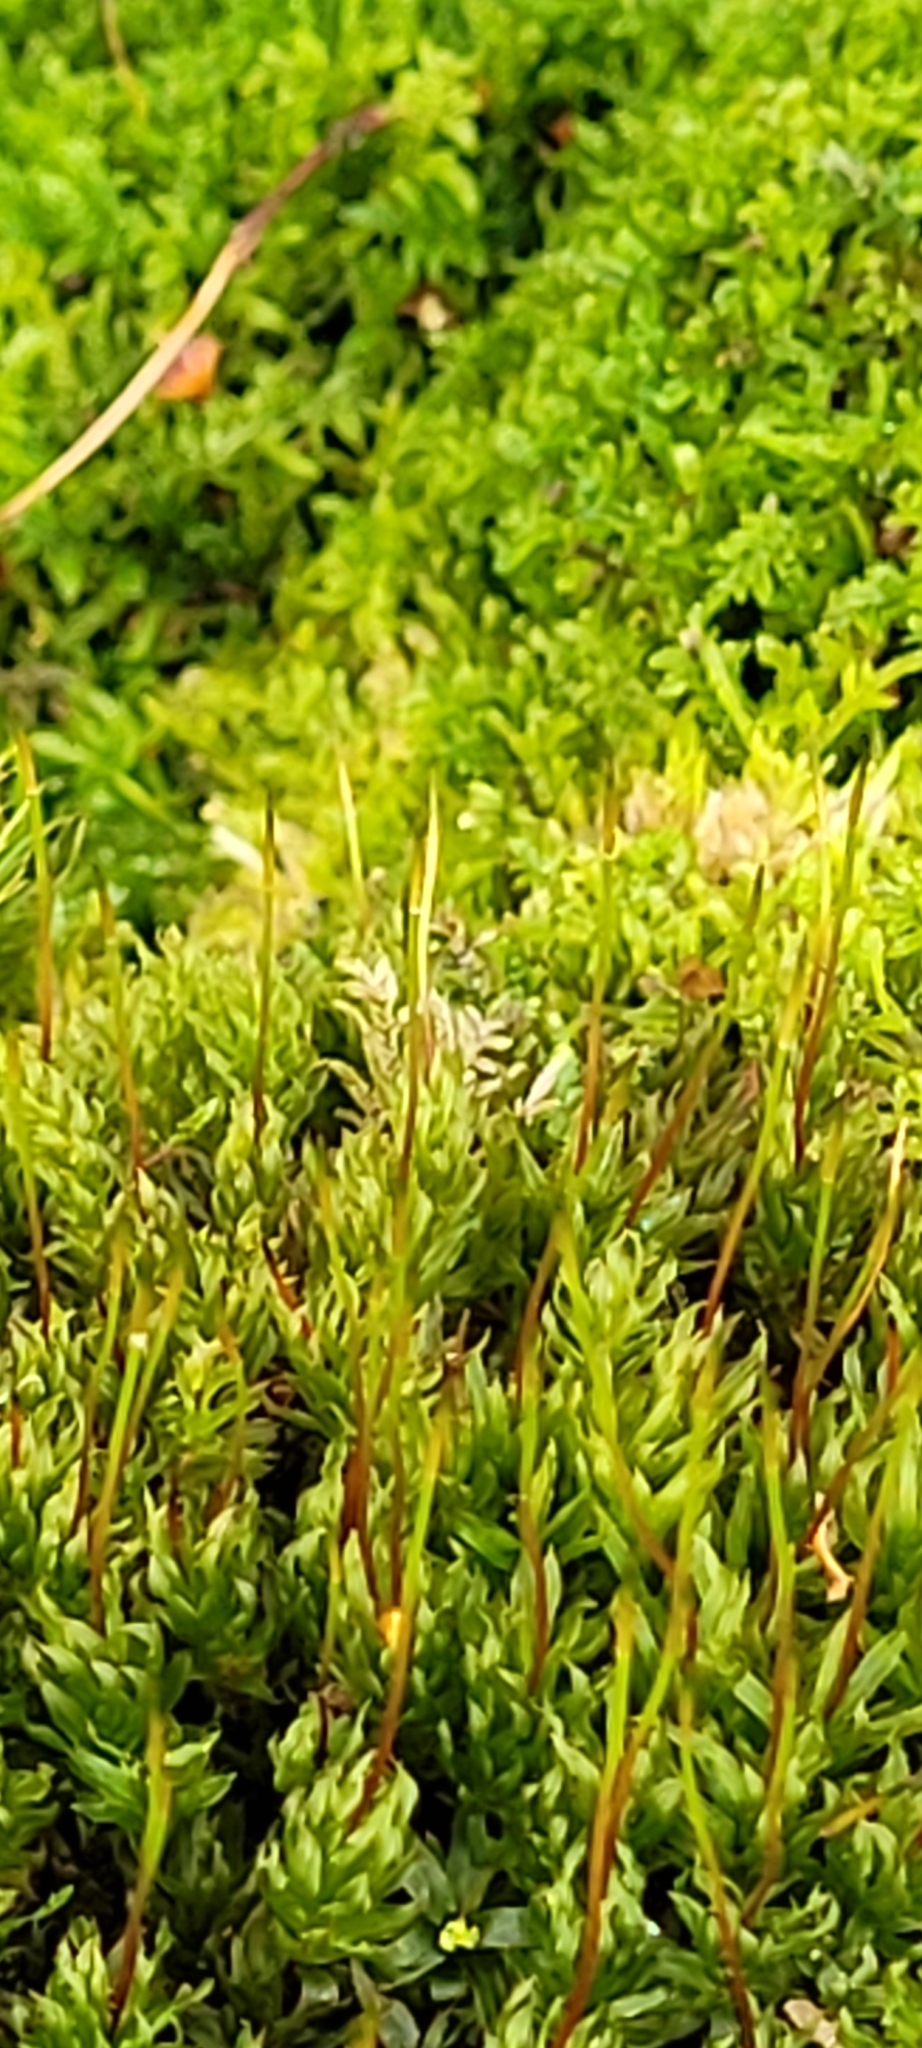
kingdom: Plantae
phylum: Bryophyta
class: Bryopsida
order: Bryales
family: Mniaceae
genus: Mnium
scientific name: Mnium hornum
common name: Swan's-neck leafy moss
